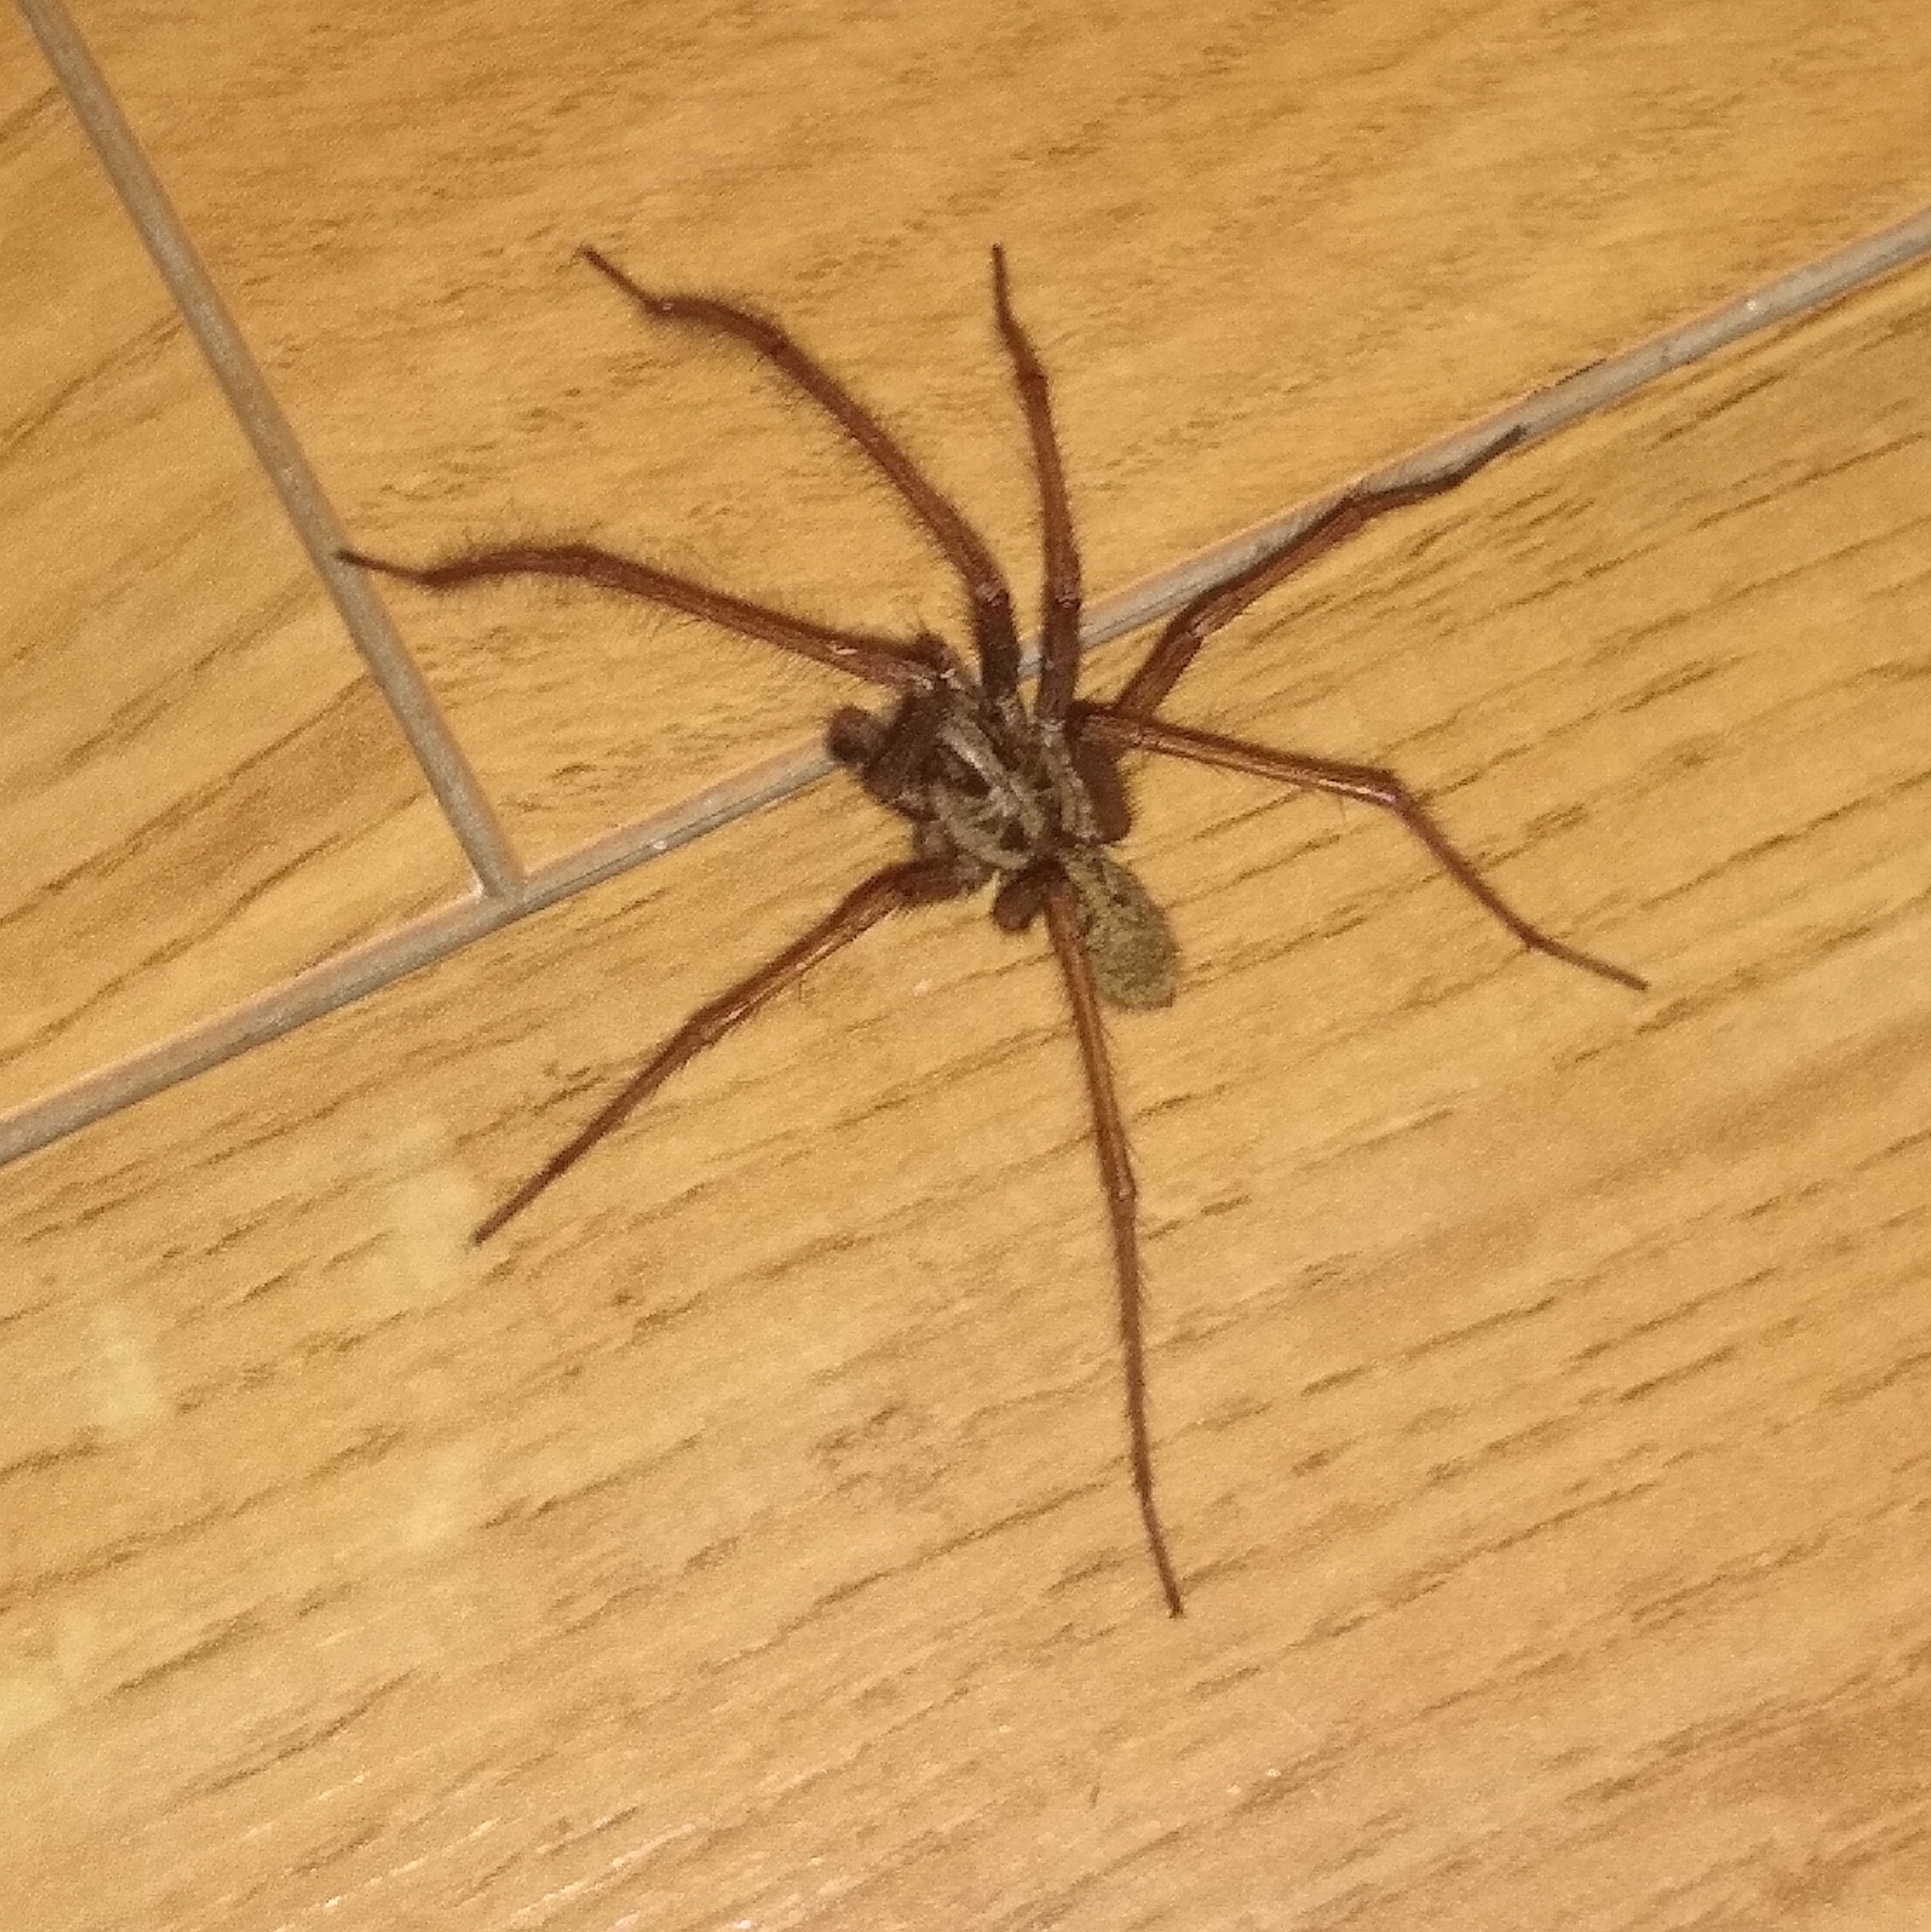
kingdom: Animalia
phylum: Arthropoda
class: Arachnida
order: Araneae
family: Agelenidae
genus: Eratigena
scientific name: Eratigena
